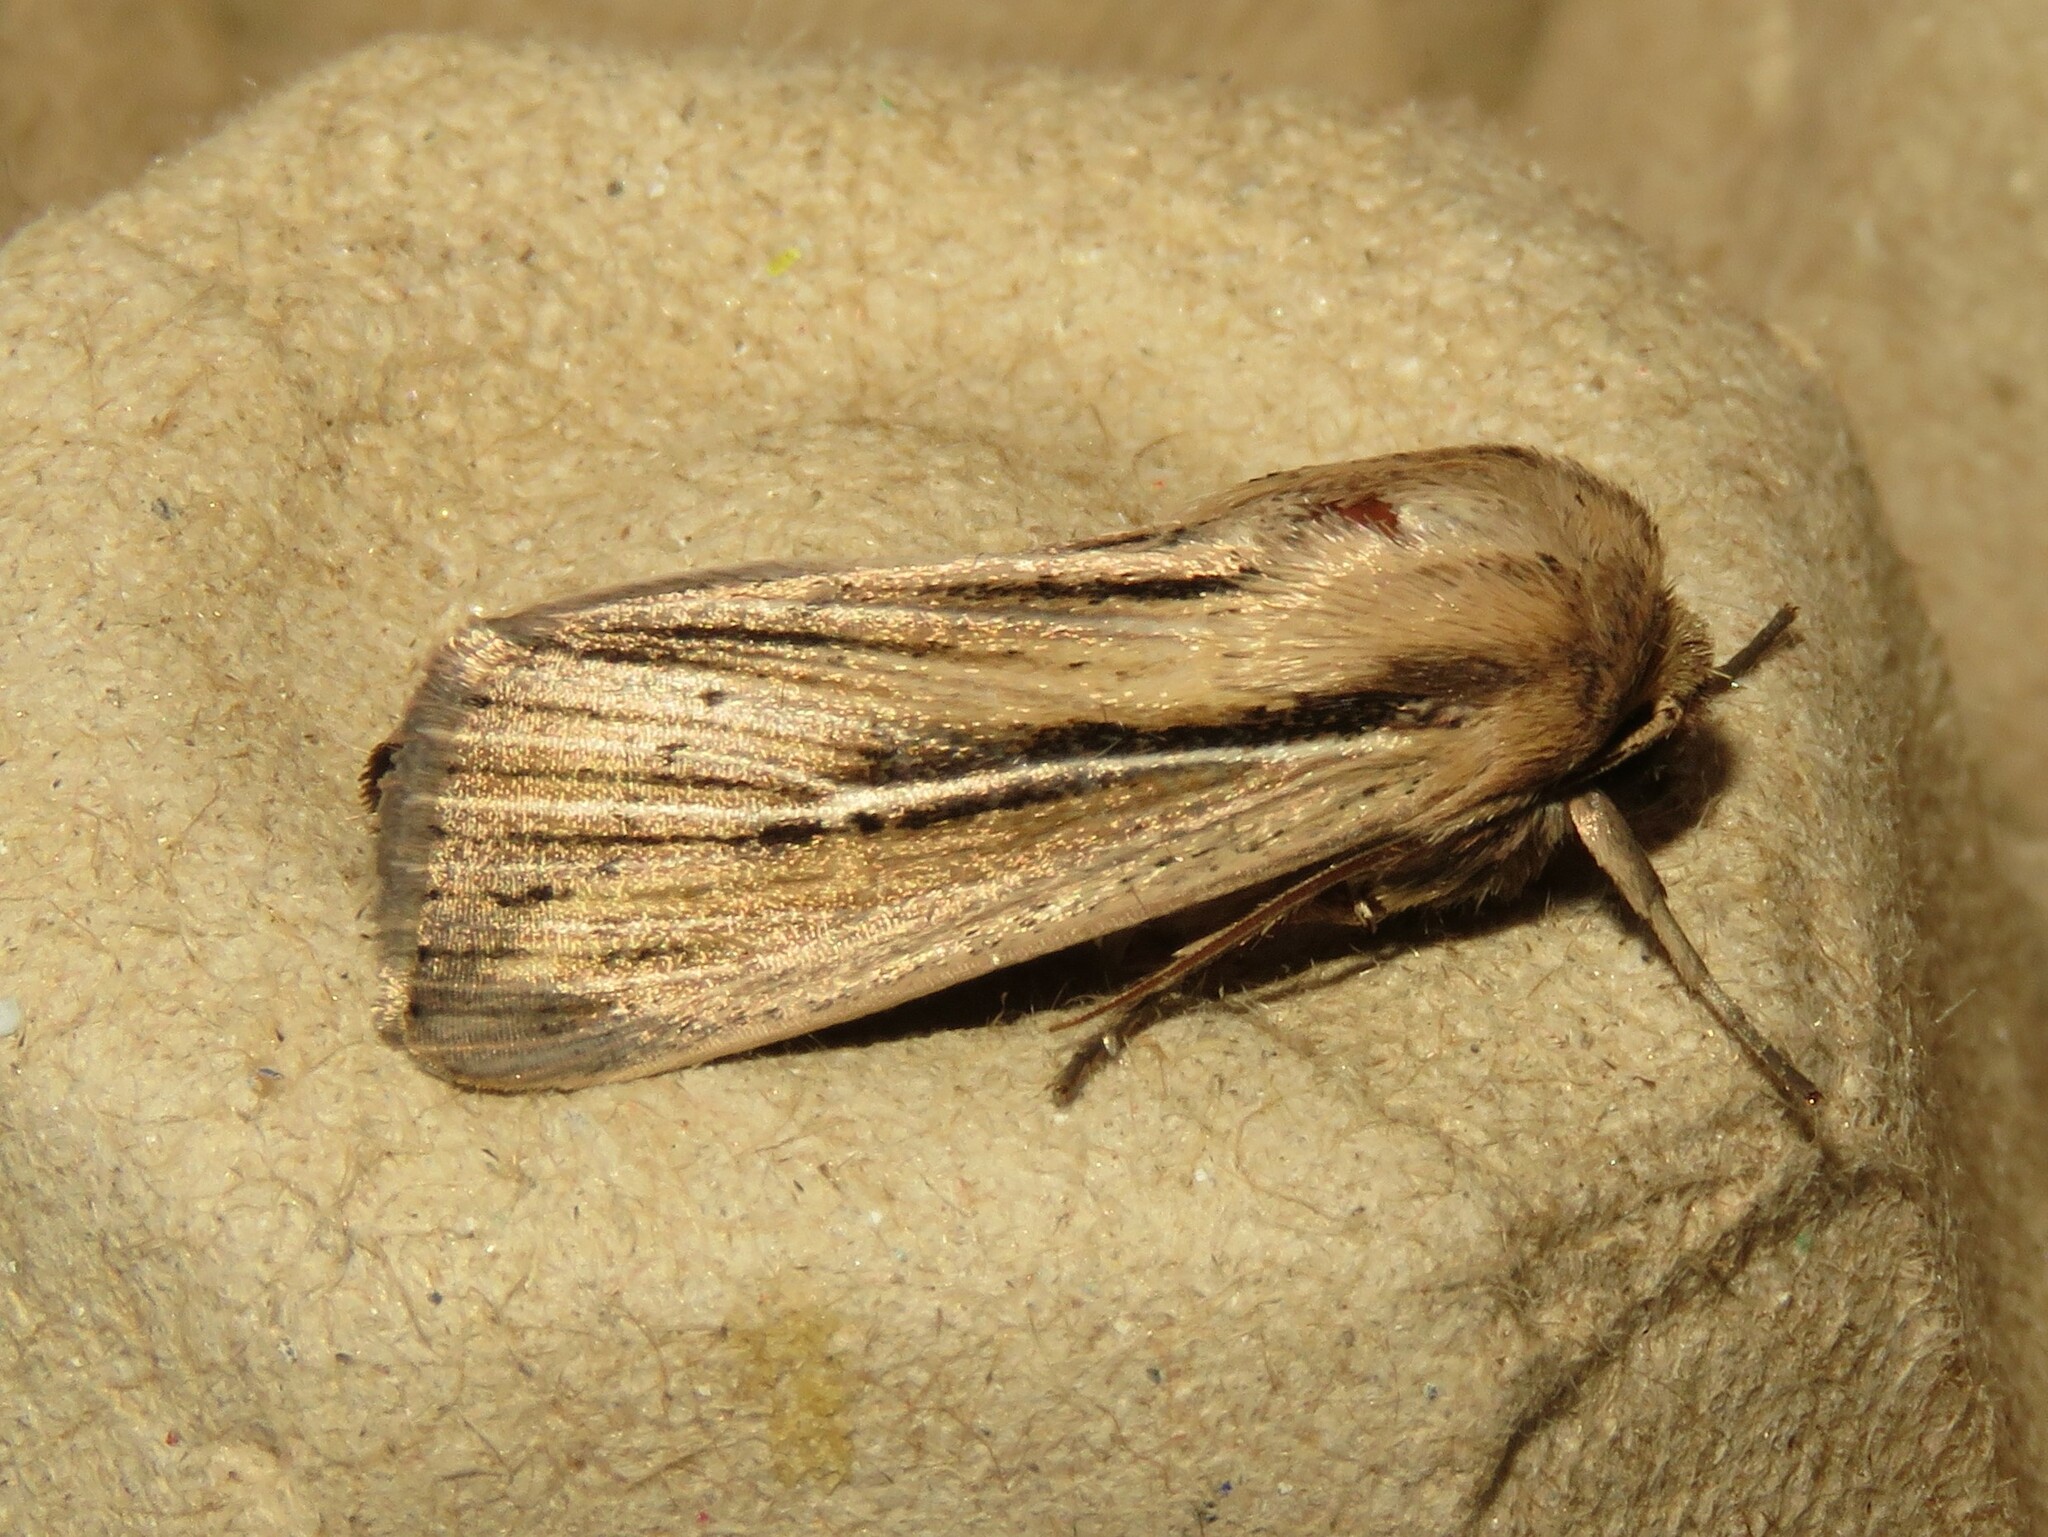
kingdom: Animalia
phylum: Arthropoda
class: Insecta
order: Lepidoptera
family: Noctuidae
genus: Leucania
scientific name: Leucania commoides
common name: Two-lined wainscot
